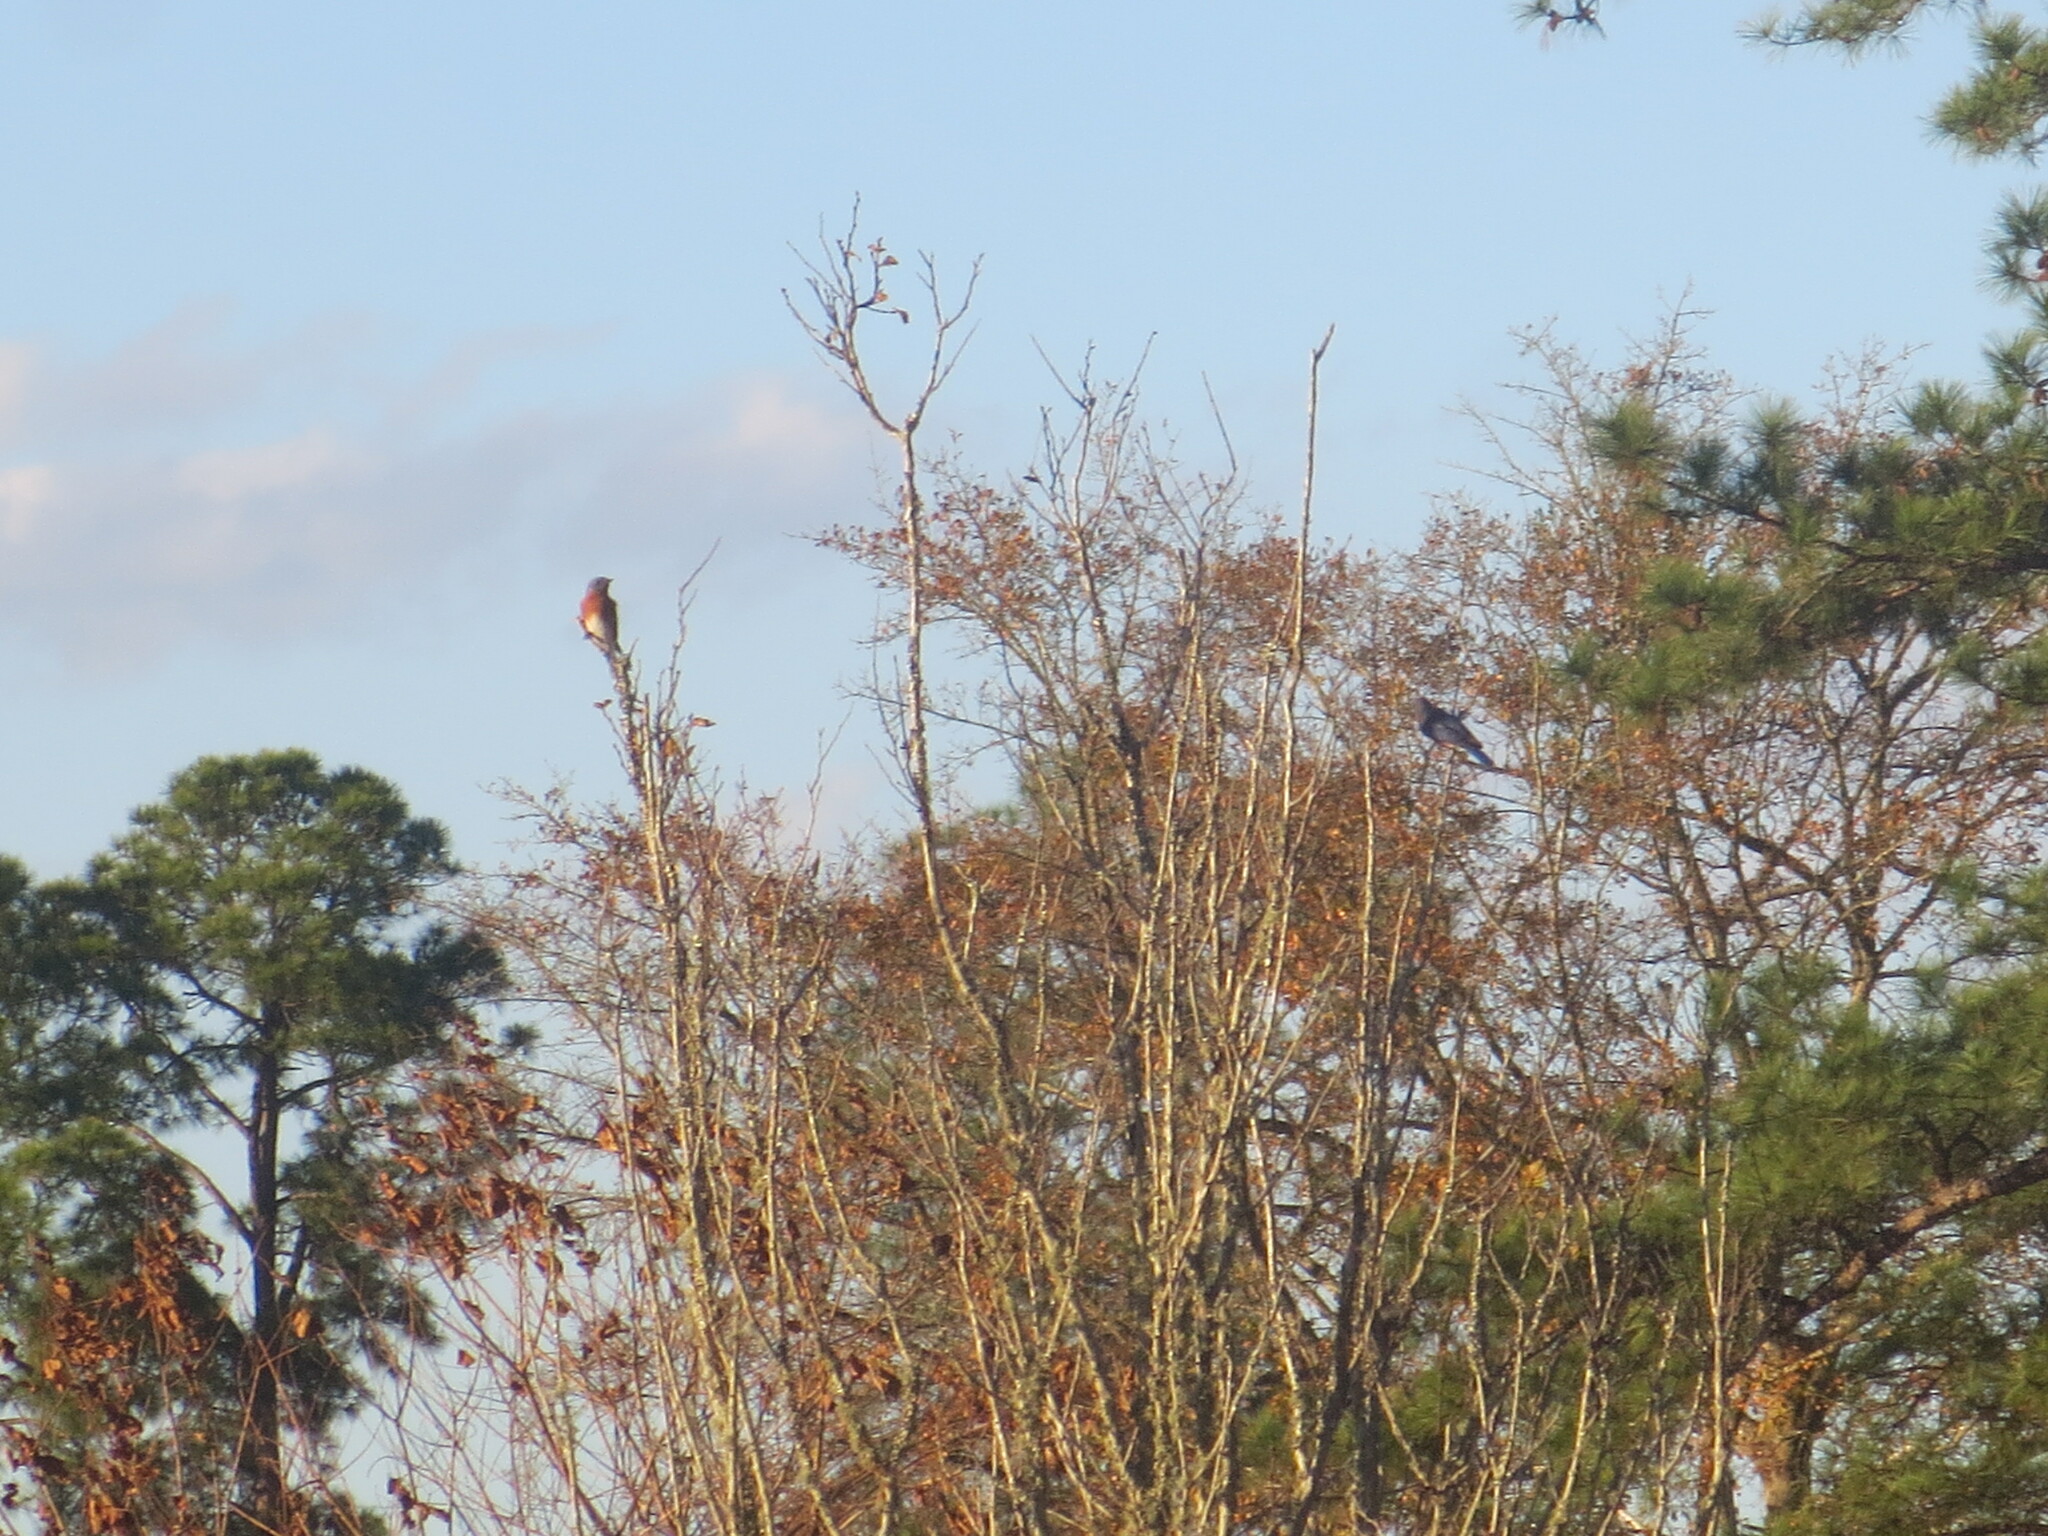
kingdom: Animalia
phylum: Chordata
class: Aves
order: Passeriformes
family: Turdidae
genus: Sialia
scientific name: Sialia sialis
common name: Eastern bluebird
